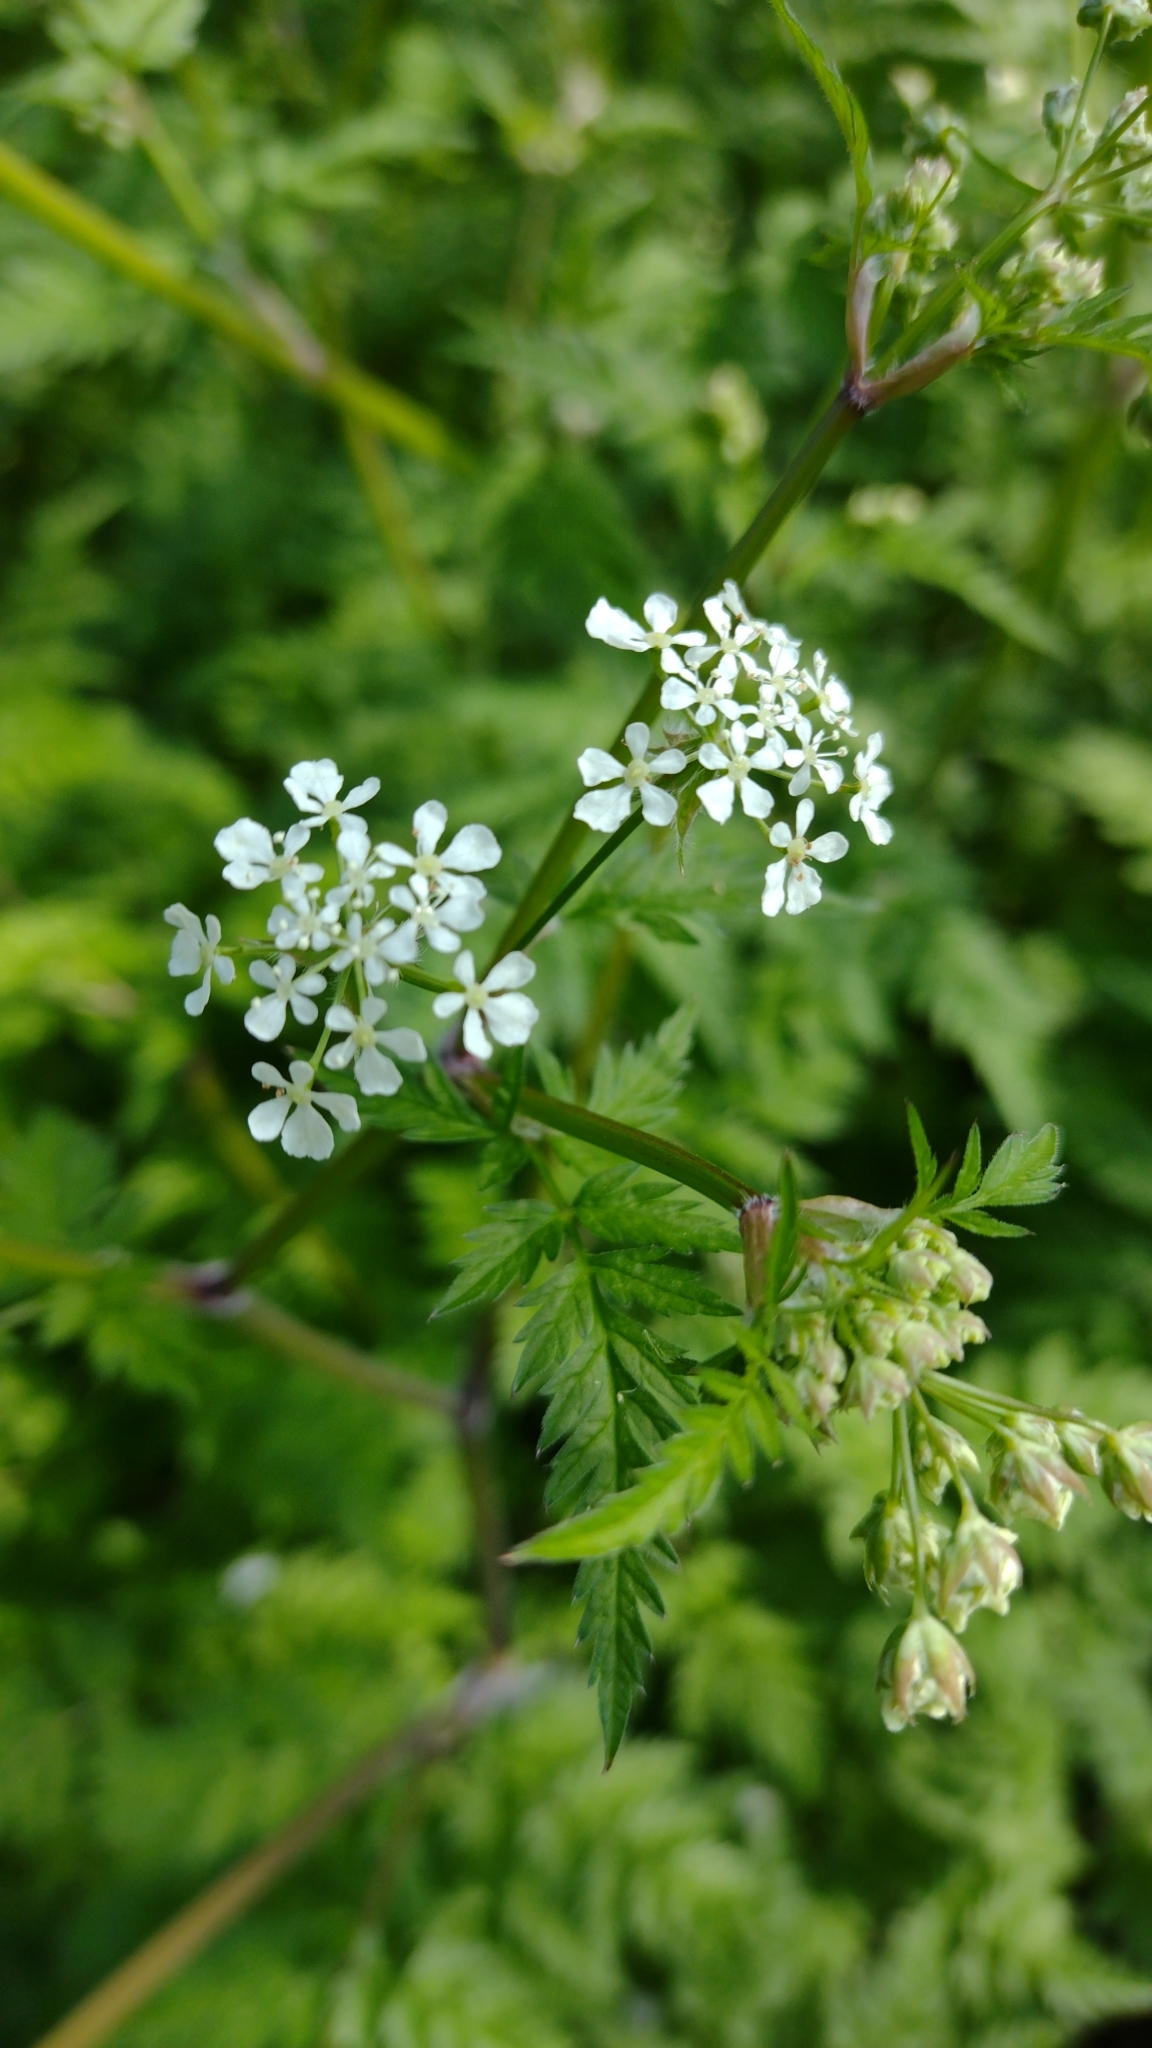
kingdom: Plantae
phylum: Tracheophyta
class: Magnoliopsida
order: Apiales
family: Apiaceae
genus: Anthriscus
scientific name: Anthriscus sylvestris
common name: Cow parsley
